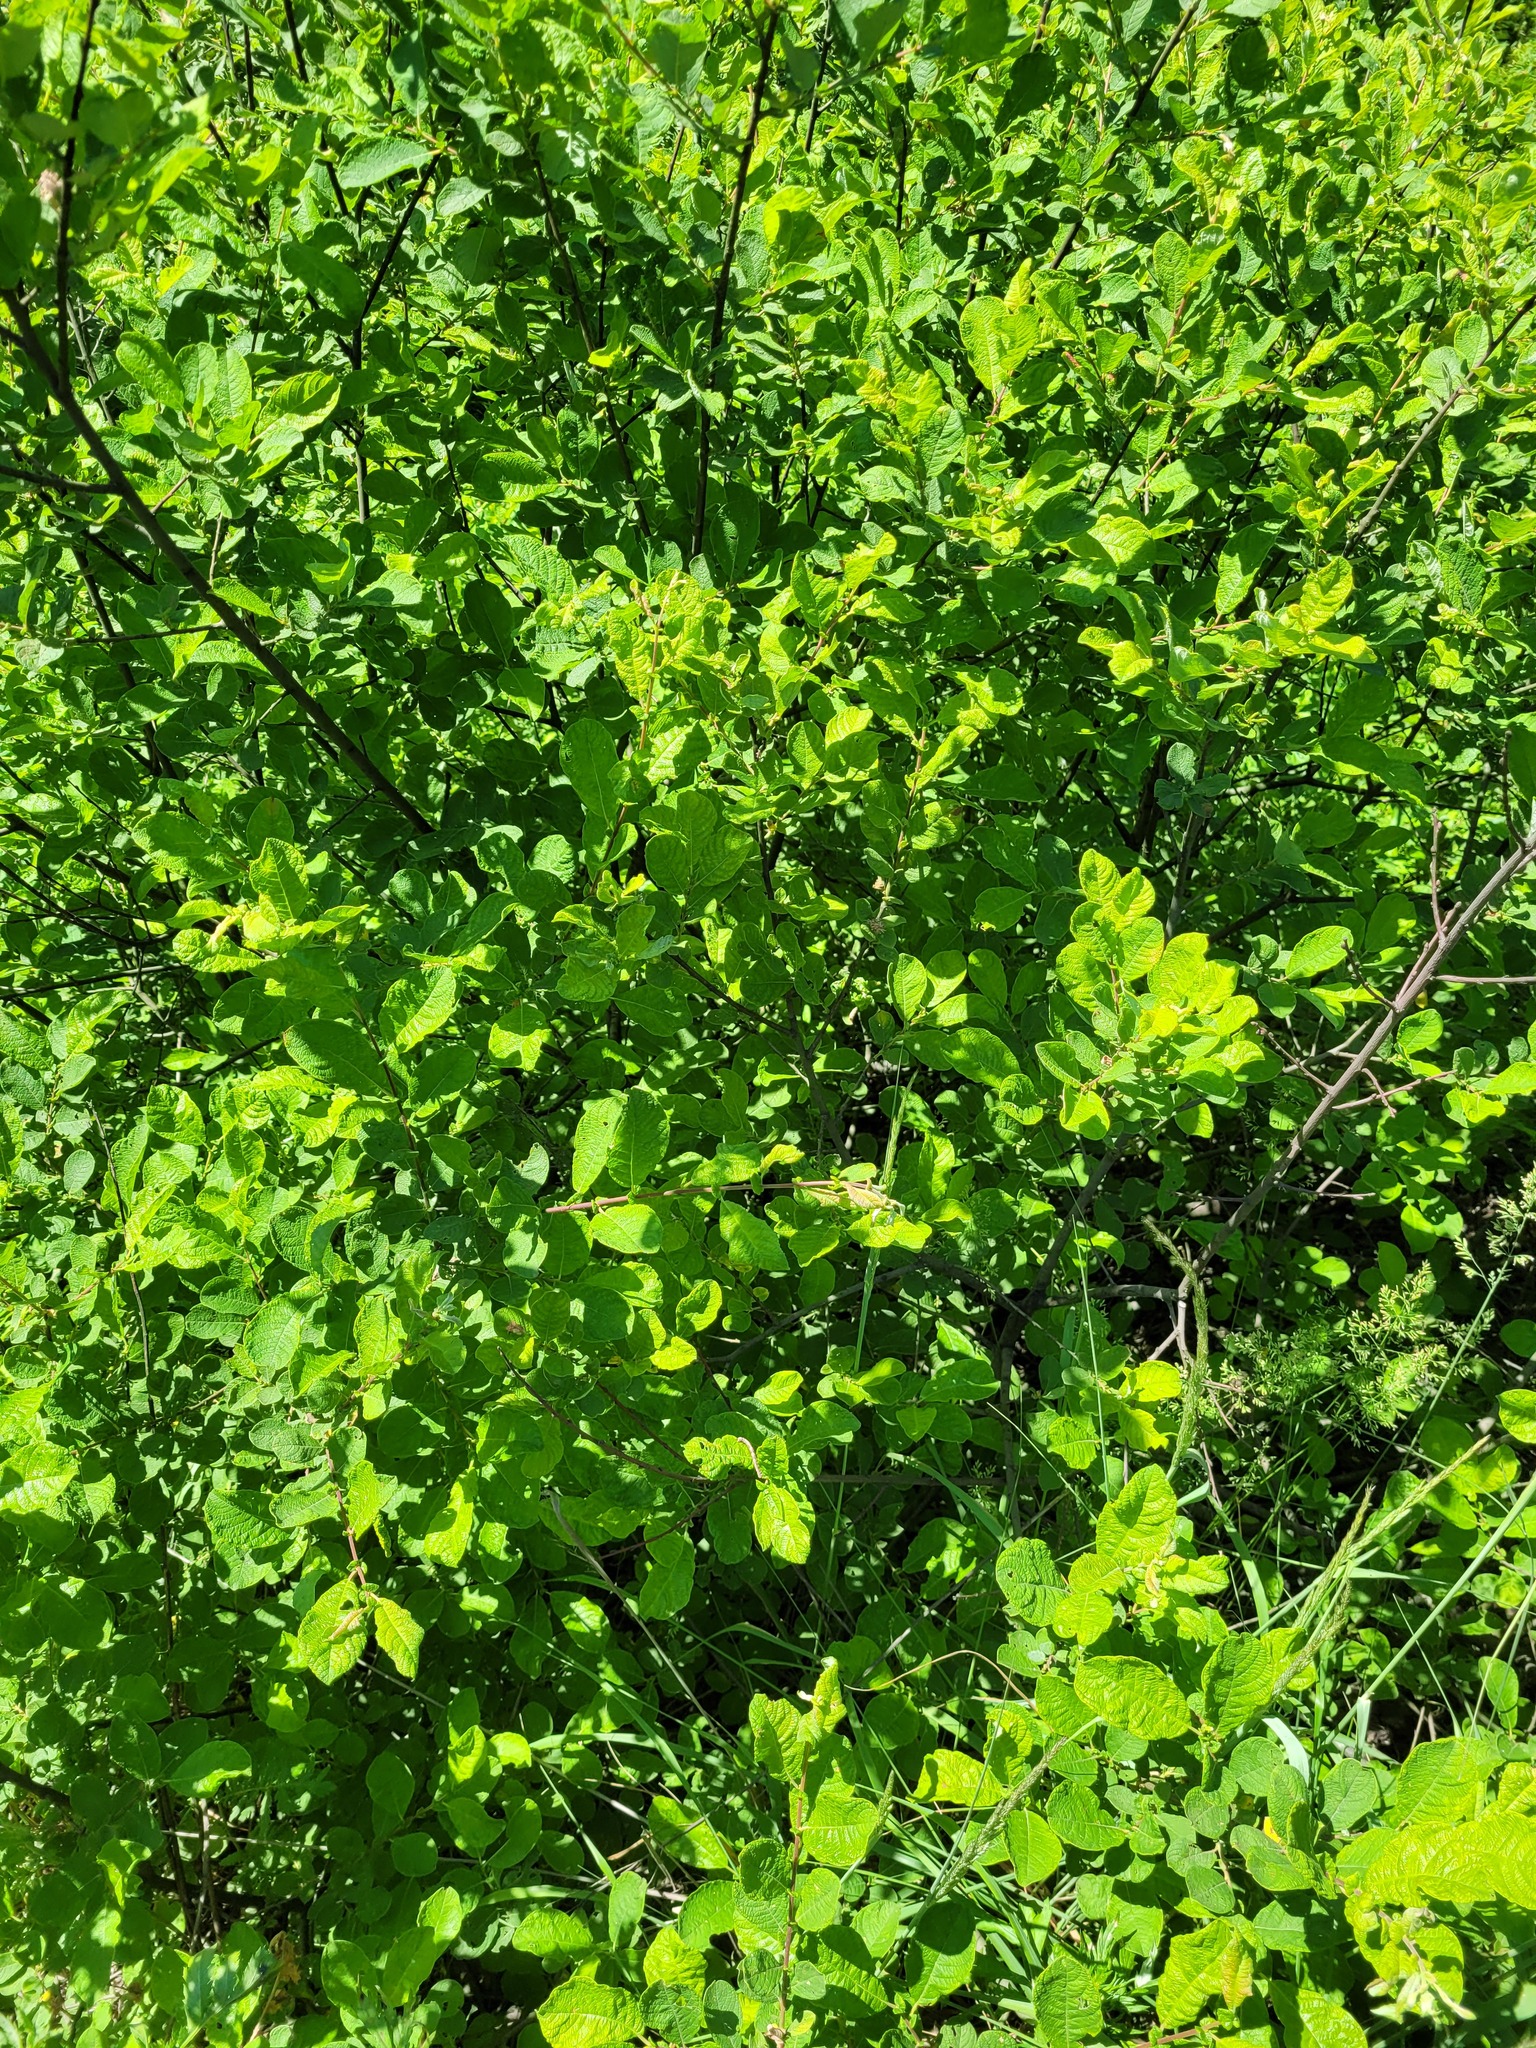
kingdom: Plantae
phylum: Tracheophyta
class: Magnoliopsida
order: Malpighiales
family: Salicaceae
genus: Salix
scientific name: Salix aurita
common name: Eared willow
